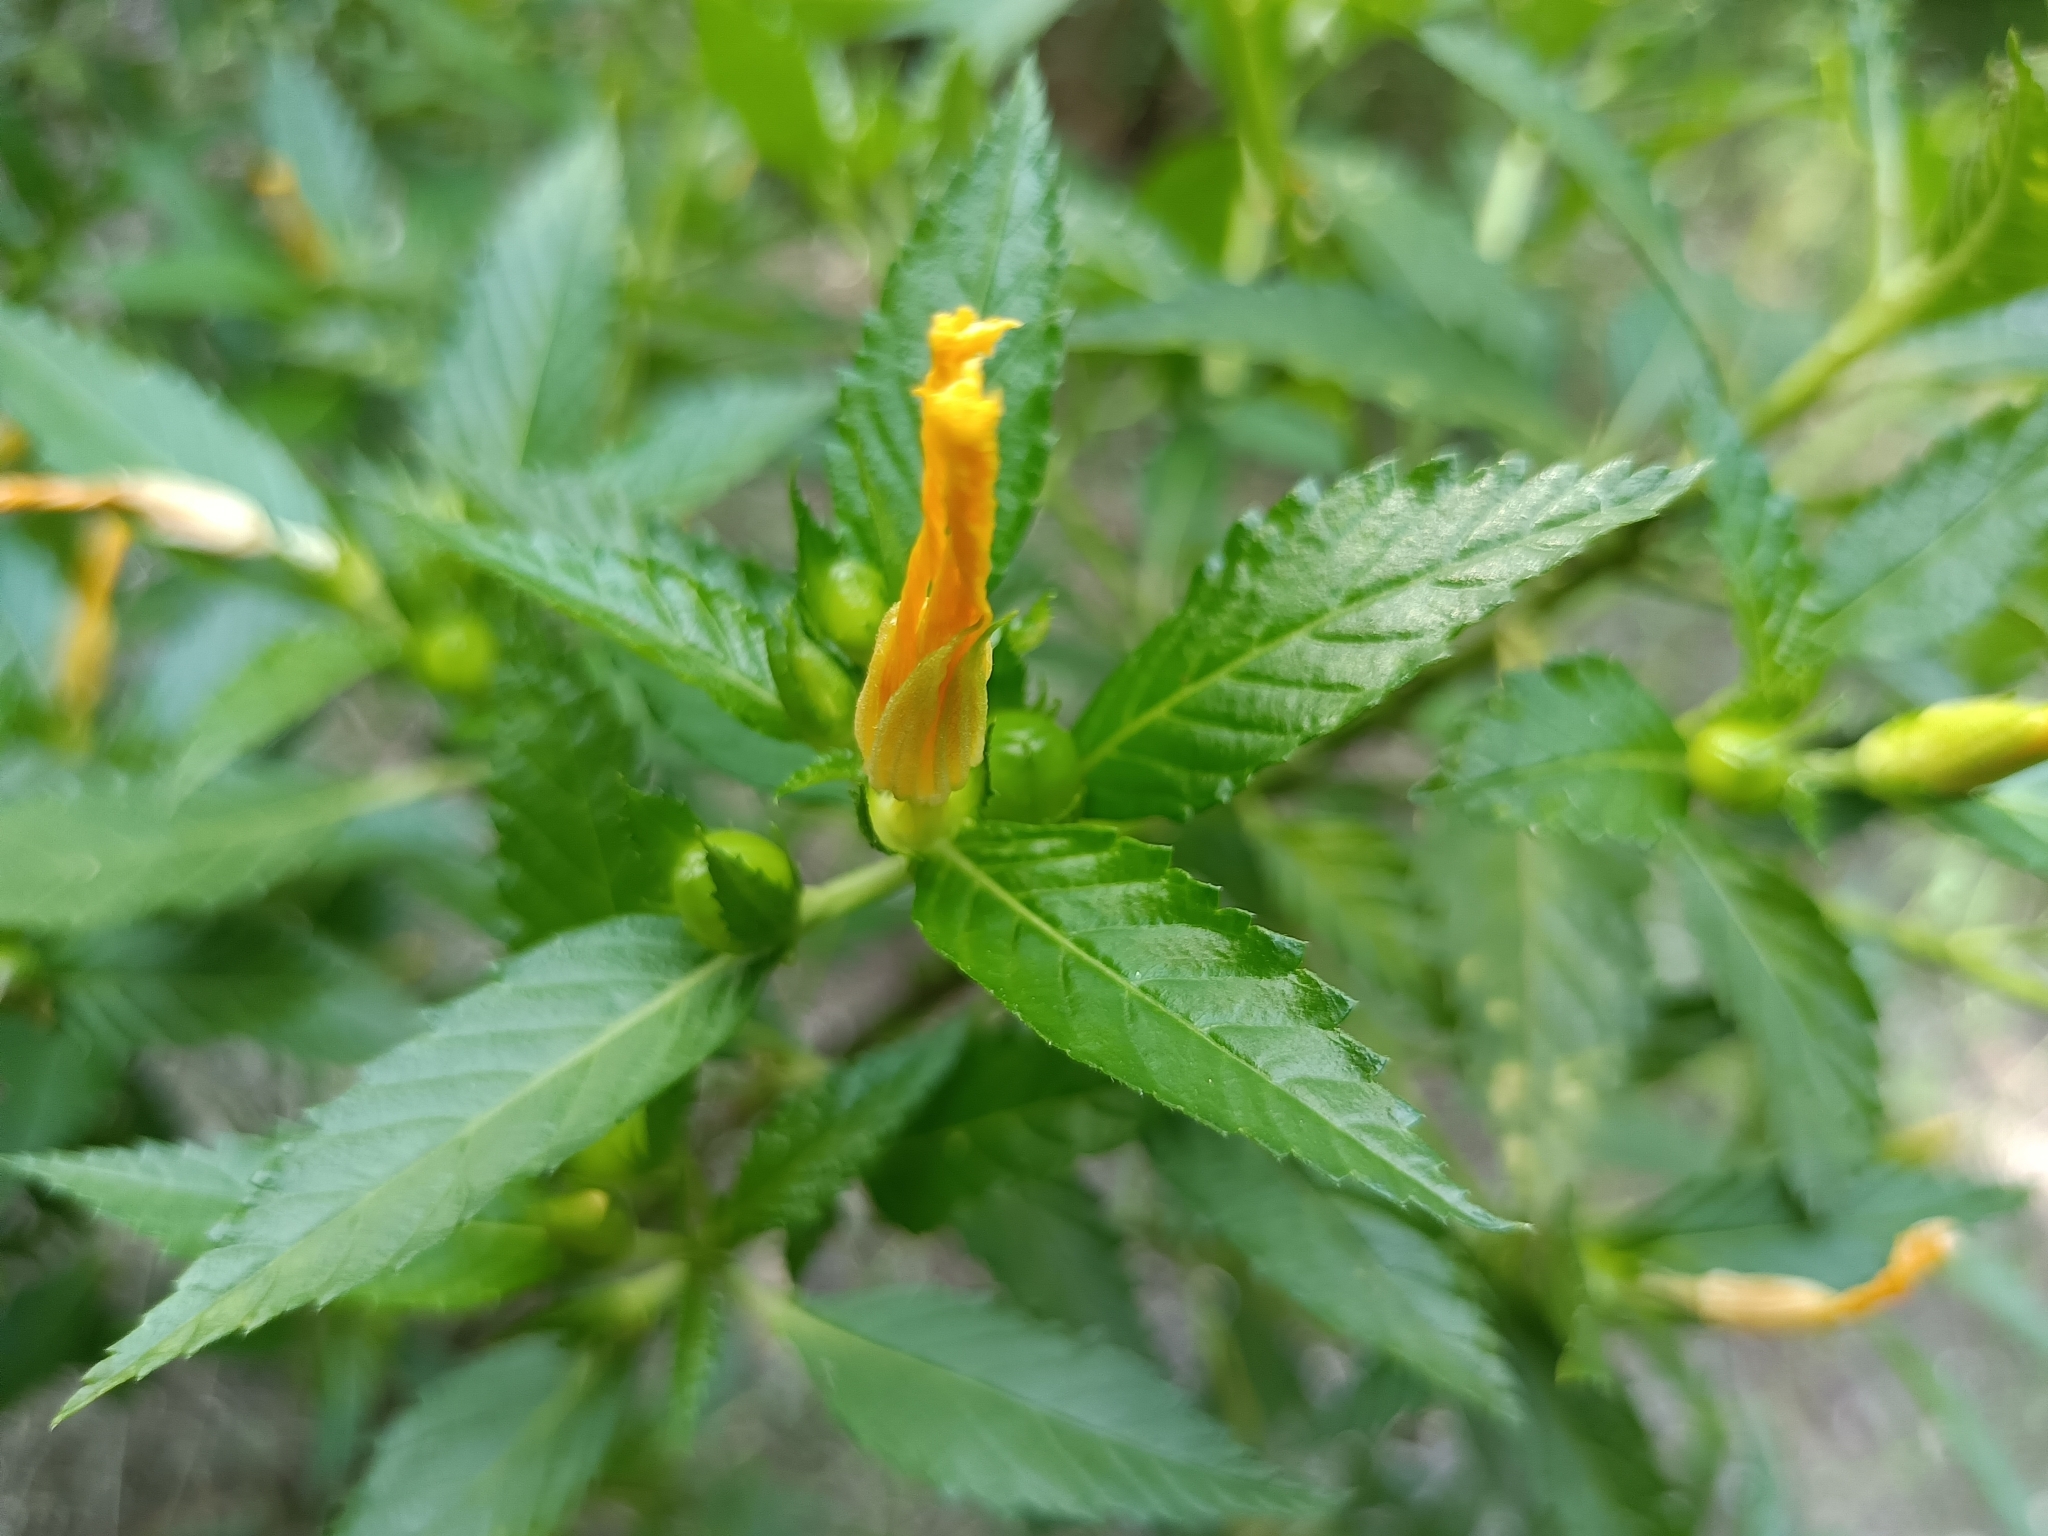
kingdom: Plantae
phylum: Tracheophyta
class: Magnoliopsida
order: Malpighiales
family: Turneraceae
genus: Turnera
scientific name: Turnera ulmifolia
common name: Ramgoat dashalong
